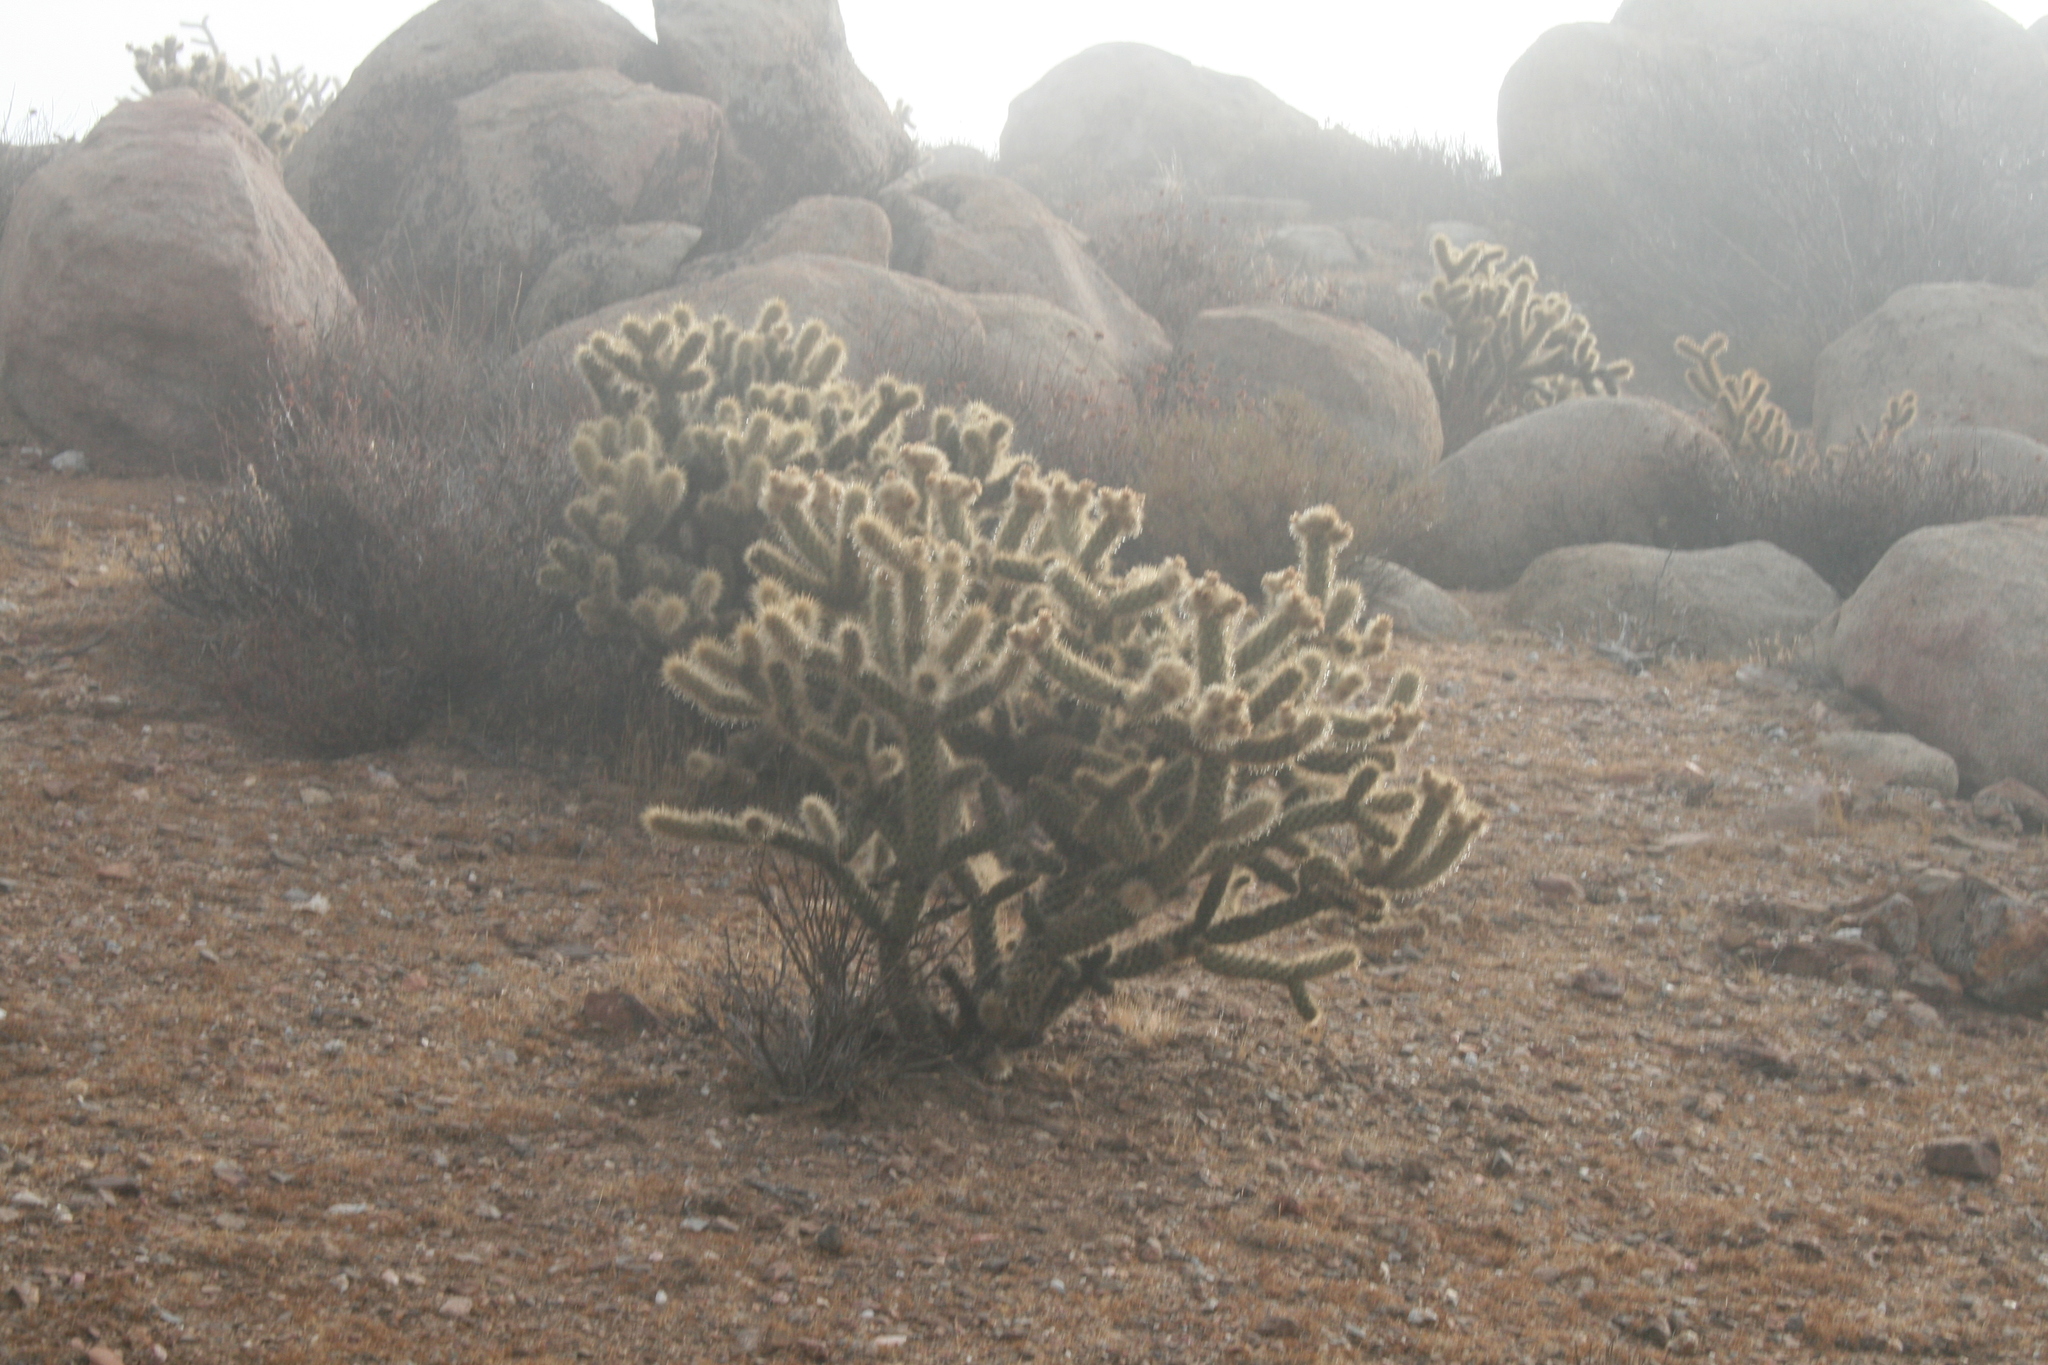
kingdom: Plantae
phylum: Tracheophyta
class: Magnoliopsida
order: Caryophyllales
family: Cactaceae
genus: Cylindropuntia
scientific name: Cylindropuntia wolfii
